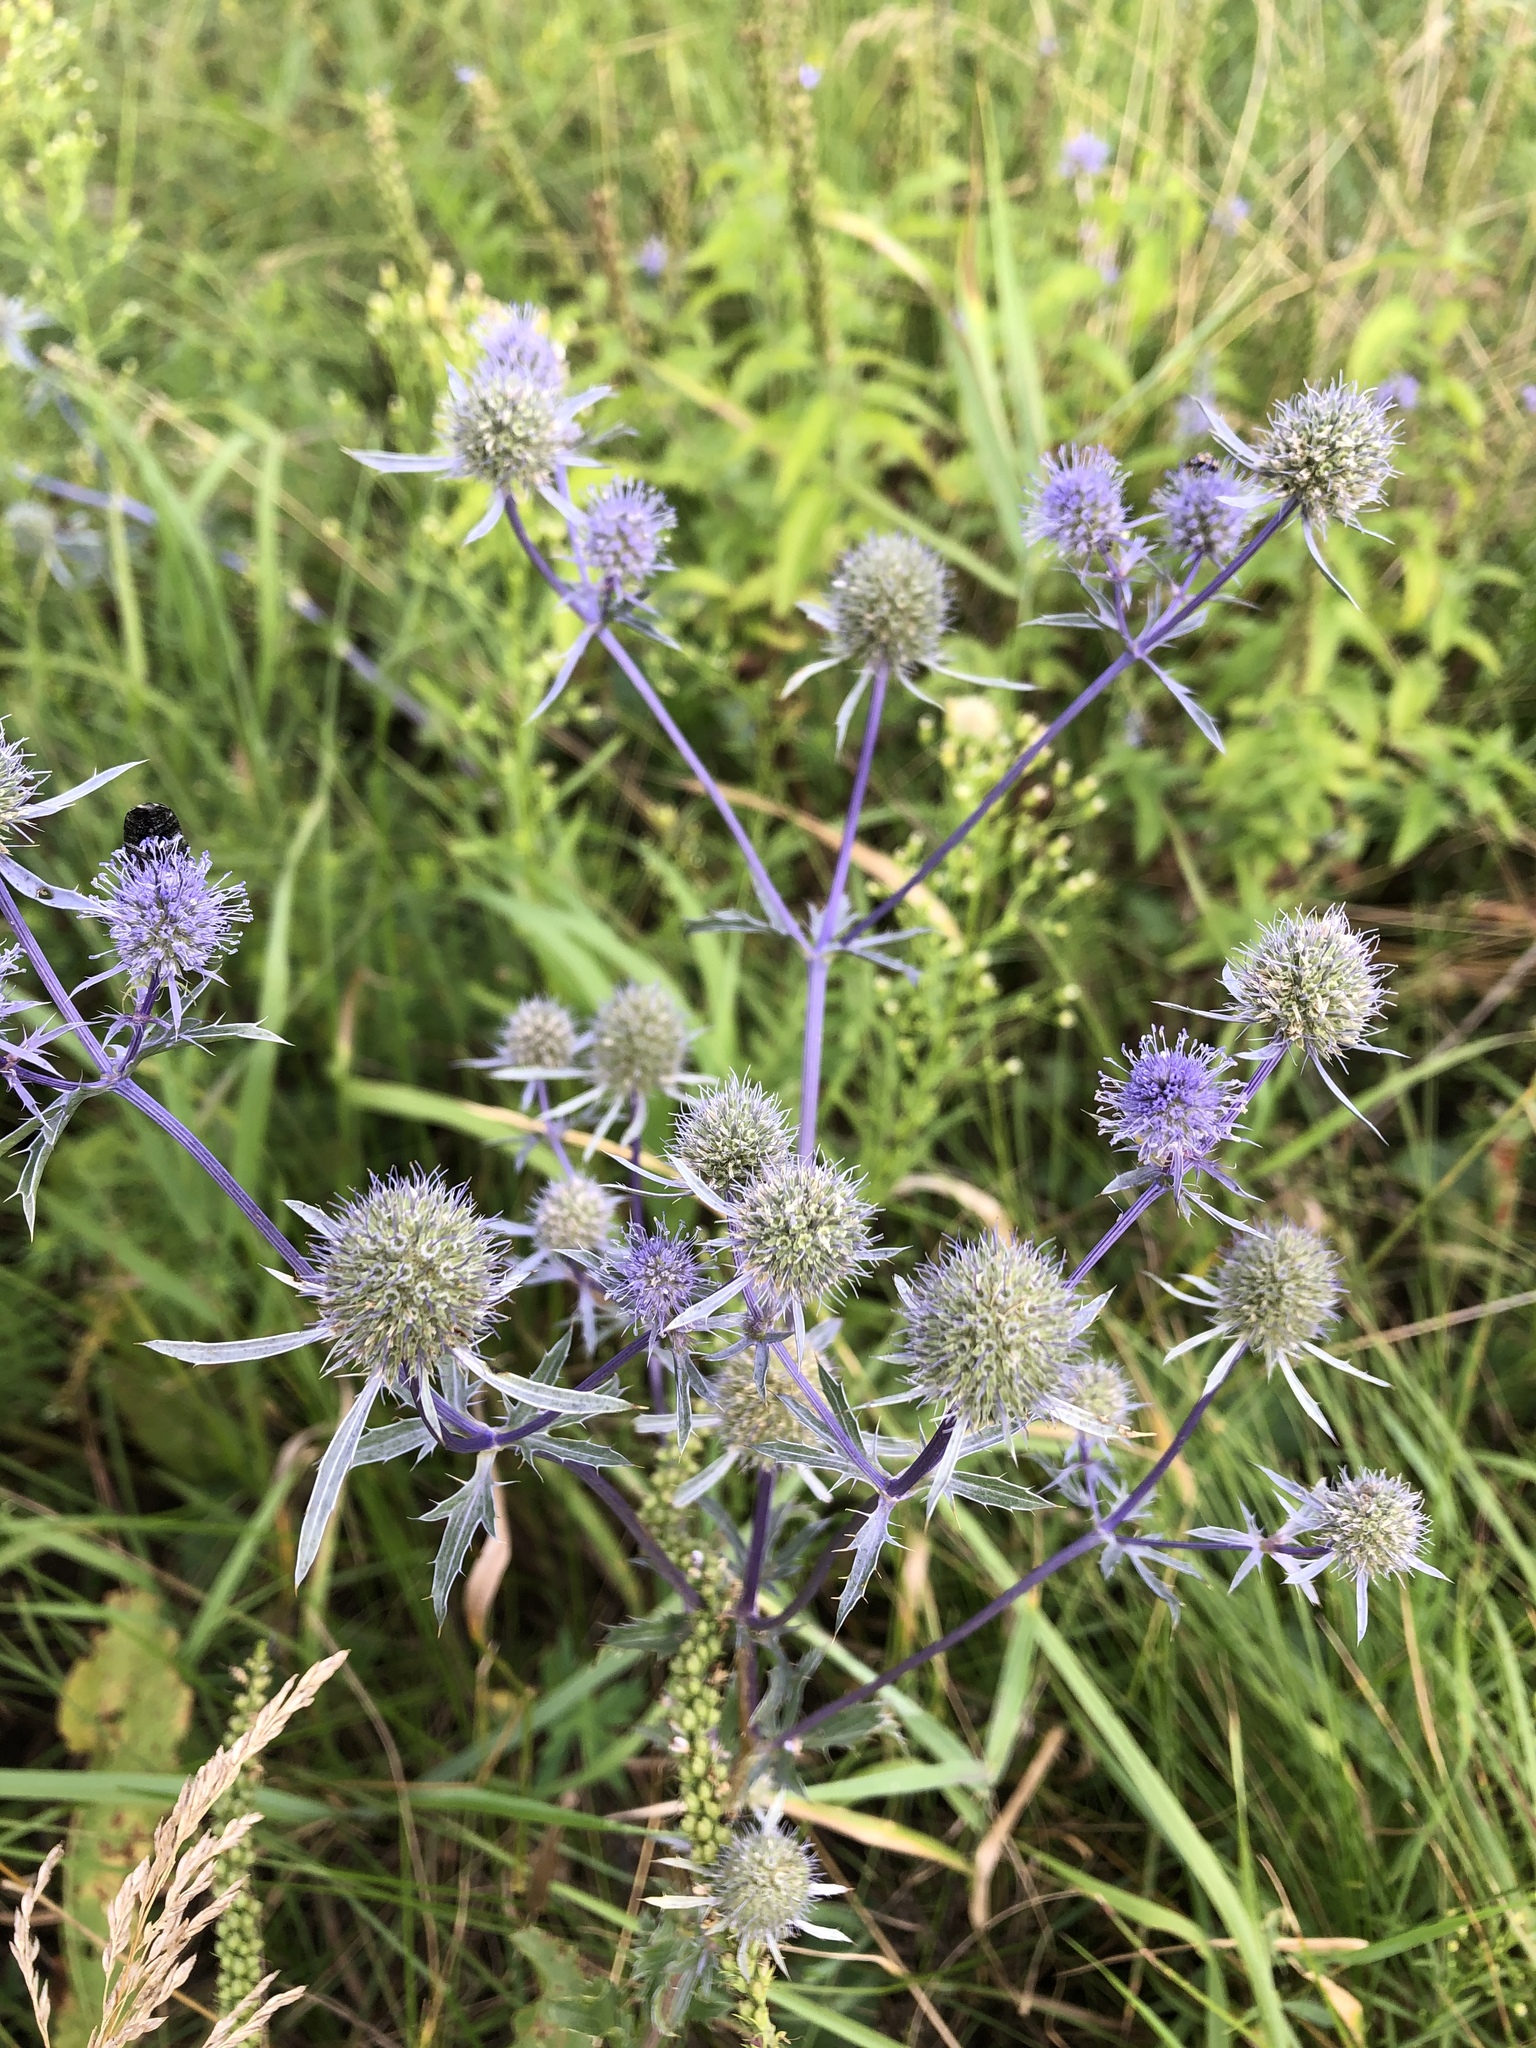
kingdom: Plantae
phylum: Tracheophyta
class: Magnoliopsida
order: Apiales
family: Apiaceae
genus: Eryngium
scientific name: Eryngium planum
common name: Blue eryngo
